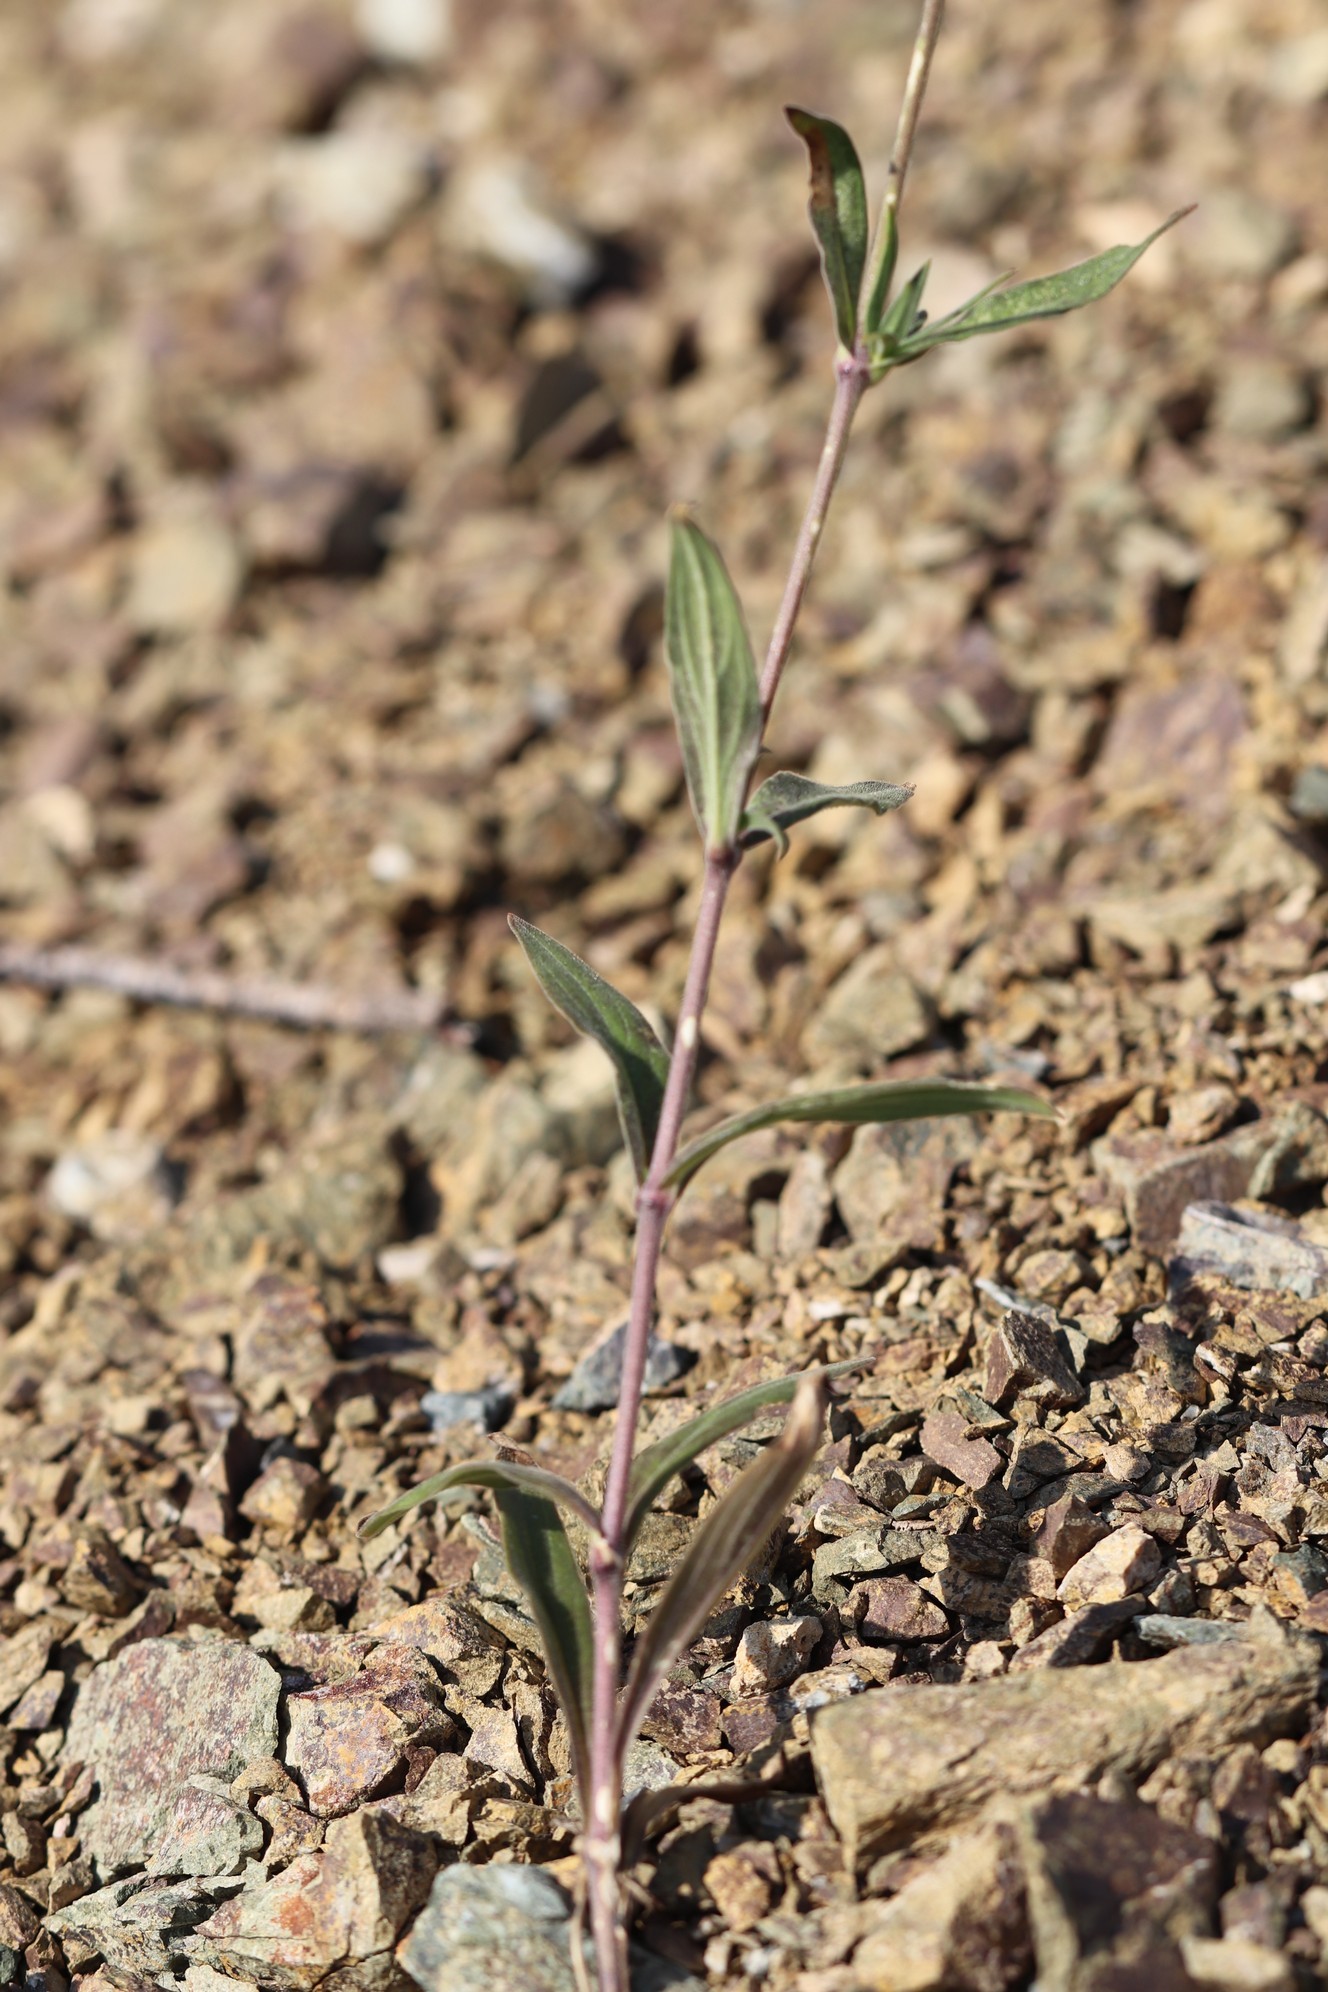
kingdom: Plantae
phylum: Tracheophyta
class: Magnoliopsida
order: Caryophyllales
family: Caryophyllaceae
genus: Silene
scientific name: Silene latifolia
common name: White campion
